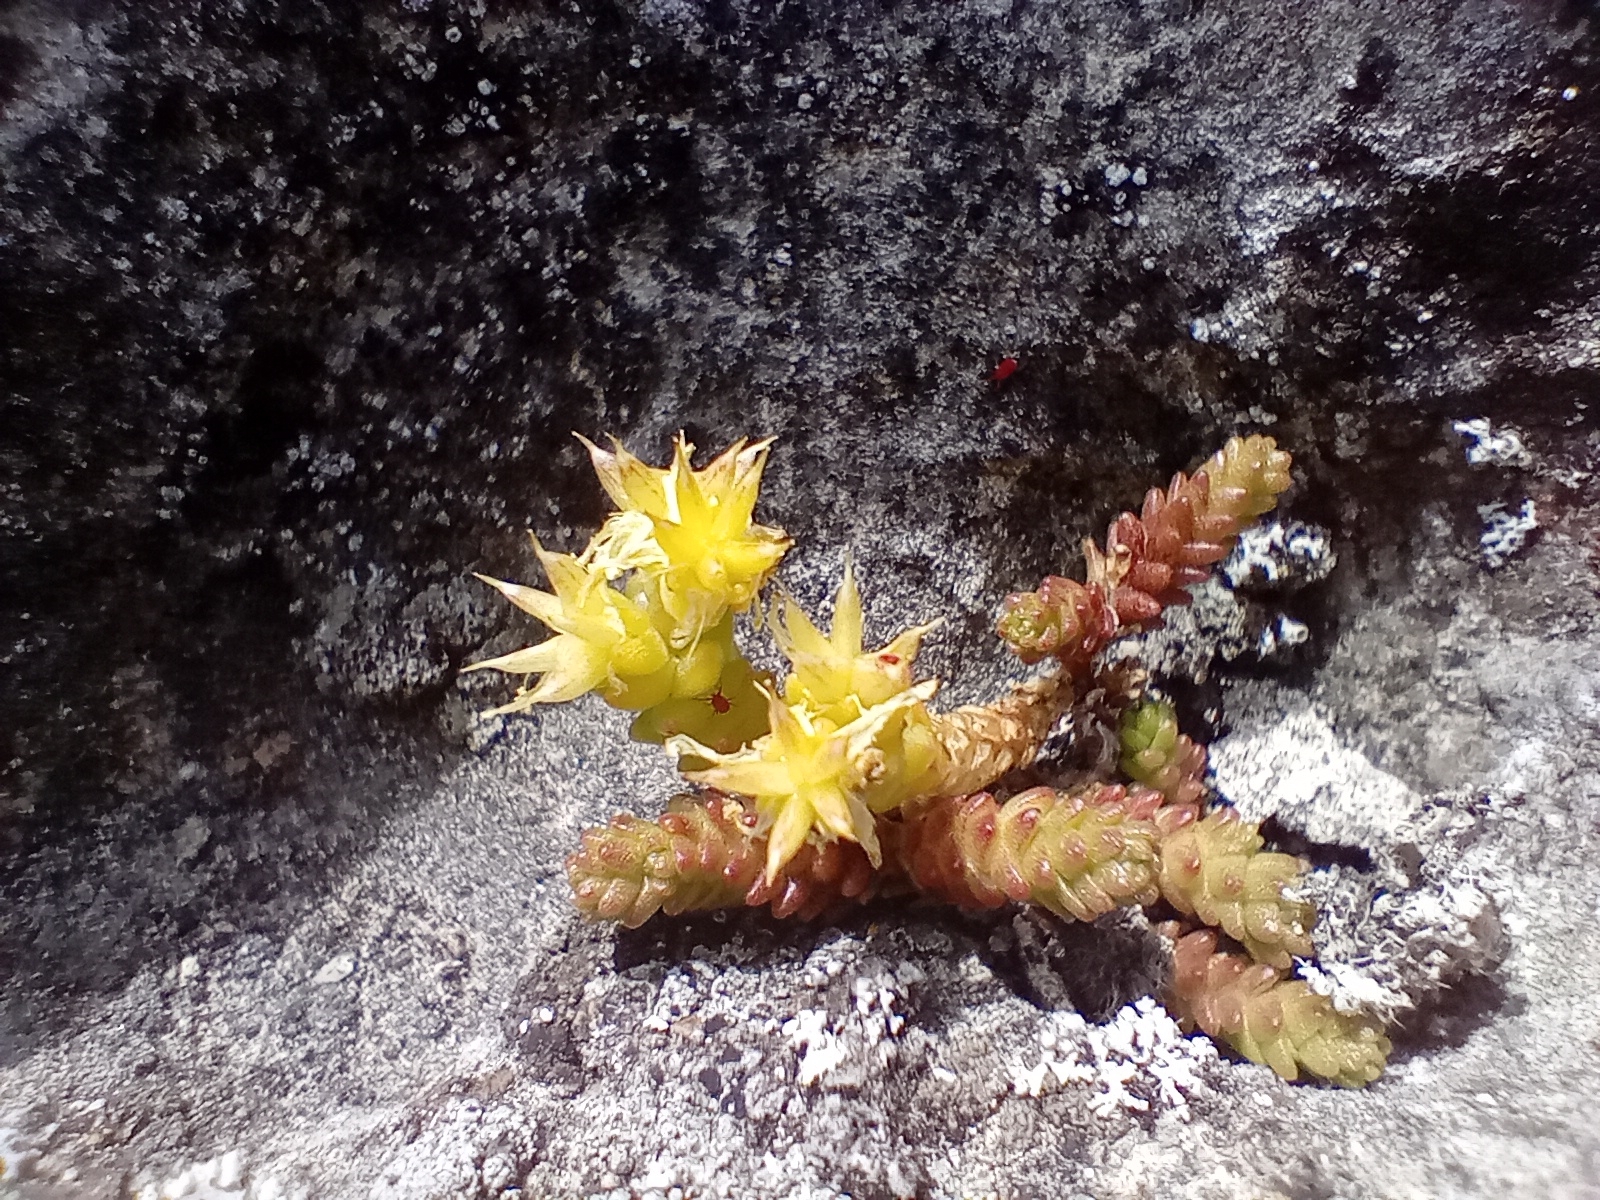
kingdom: Plantae
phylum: Tracheophyta
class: Magnoliopsida
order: Saxifragales
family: Crassulaceae
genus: Sedum
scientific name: Sedum acre
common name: Biting stonecrop
